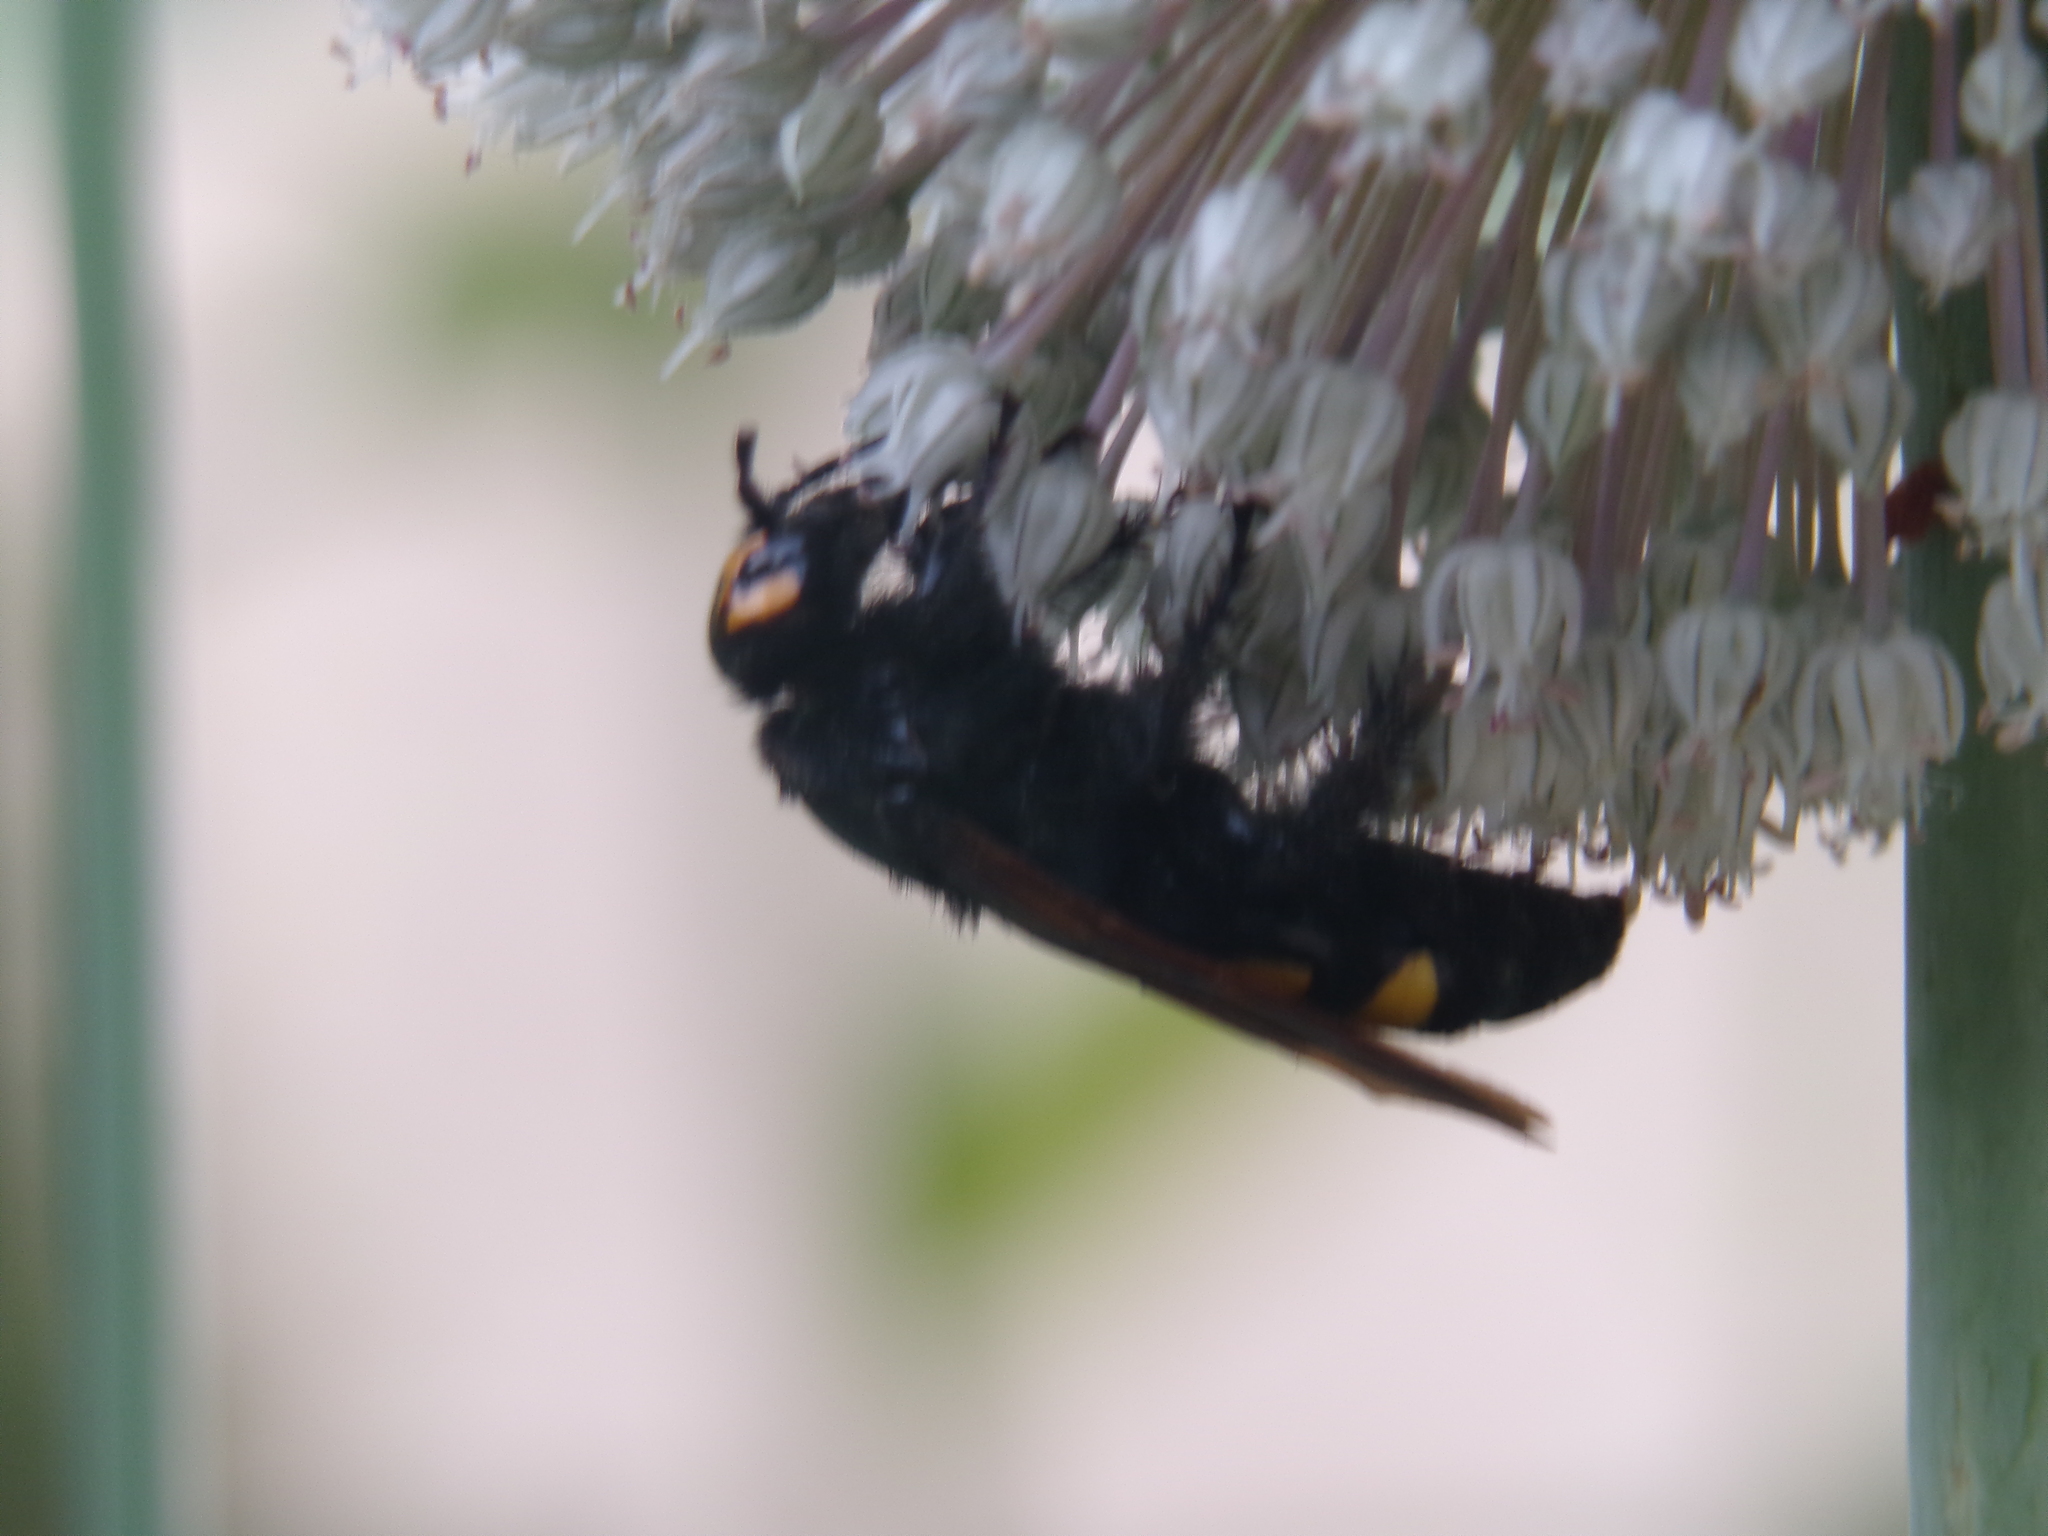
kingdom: Animalia
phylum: Arthropoda
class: Insecta
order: Hymenoptera
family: Scoliidae
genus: Megascolia
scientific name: Megascolia maculata
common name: Mammoth wasp
